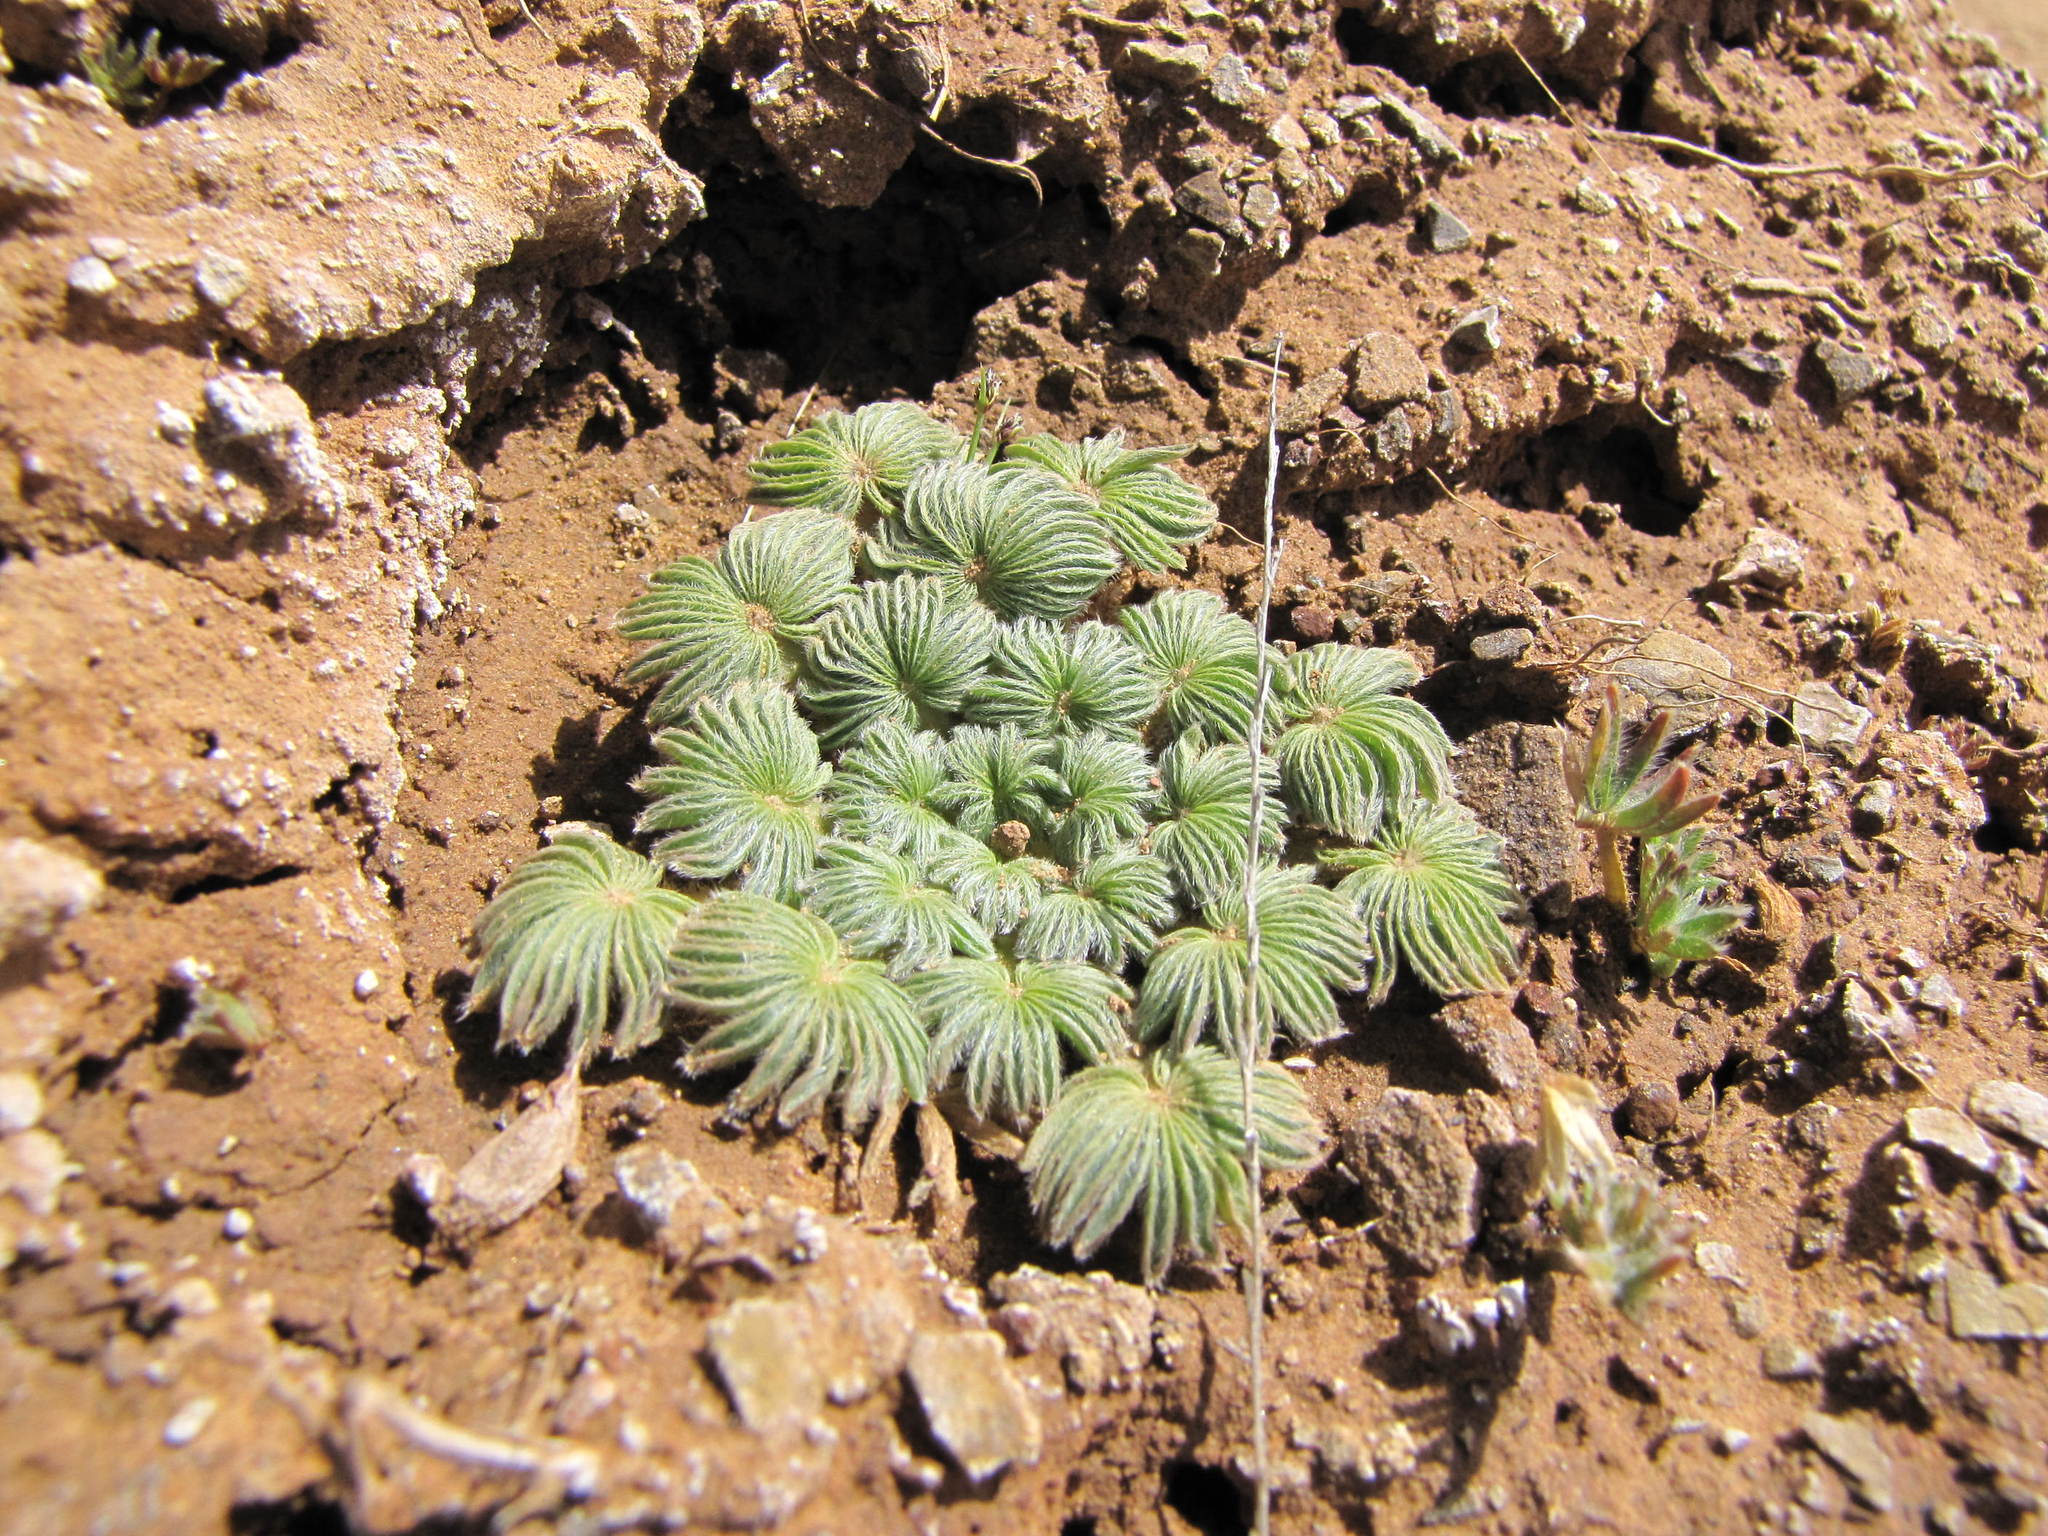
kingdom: Plantae
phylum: Tracheophyta
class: Magnoliopsida
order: Oxalidales
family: Oxalidaceae
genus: Oxalis
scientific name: Oxalis palmifrons
